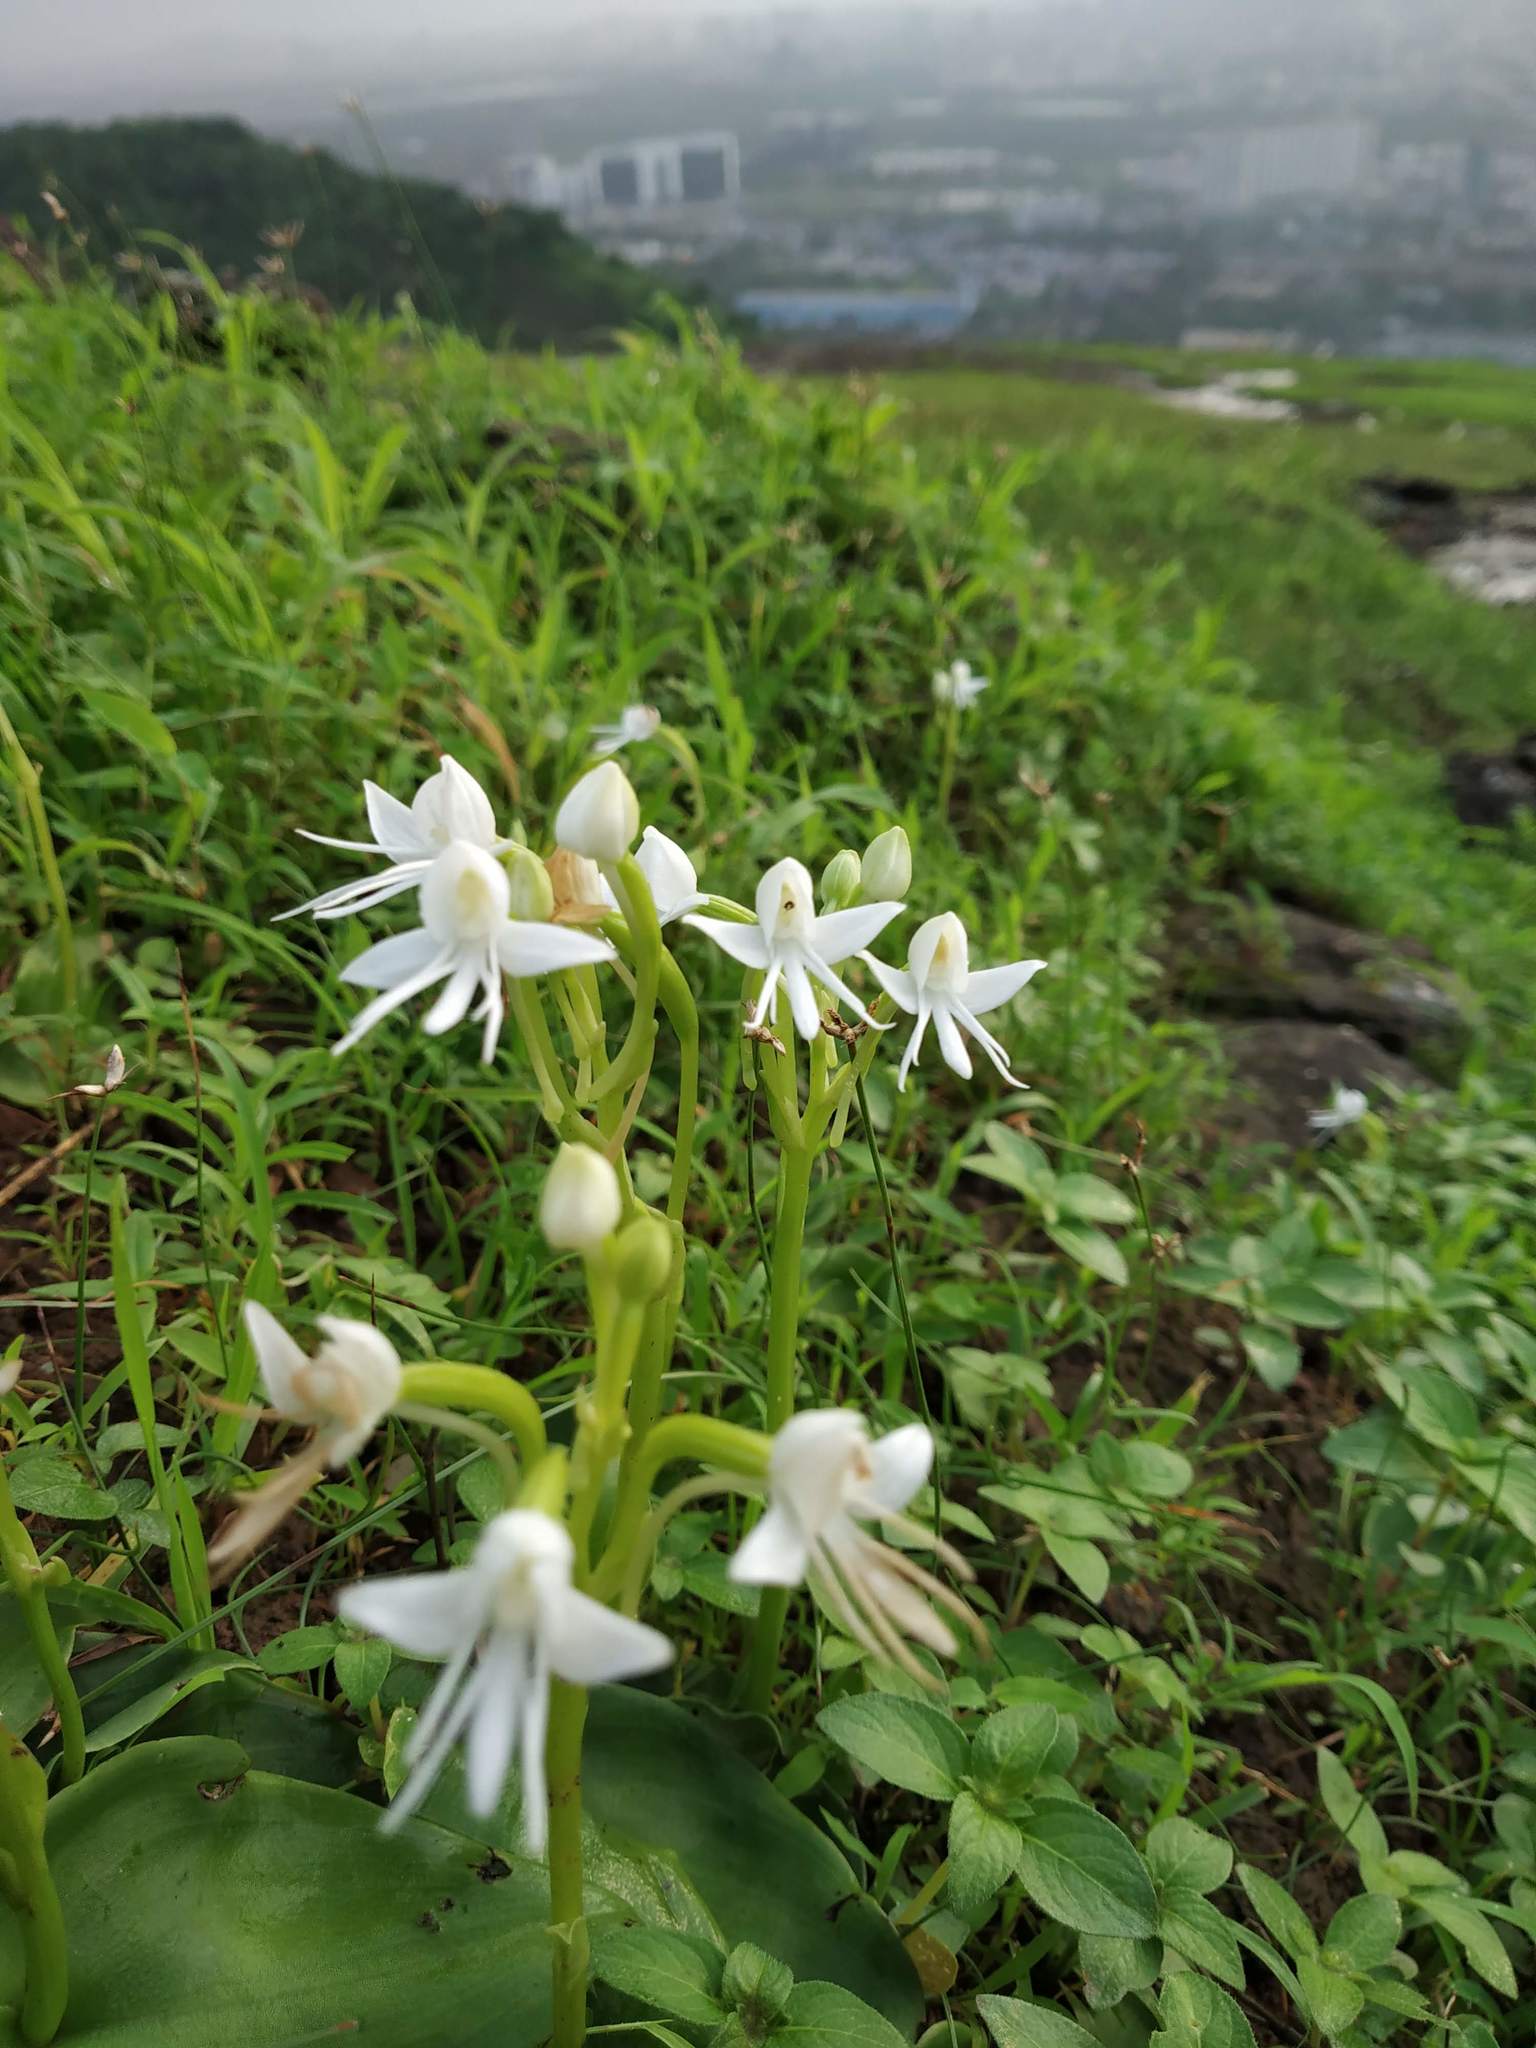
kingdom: Plantae
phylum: Tracheophyta
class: Liliopsida
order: Asparagales
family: Orchidaceae
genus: Habenaria
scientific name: Habenaria grandifloriformis
